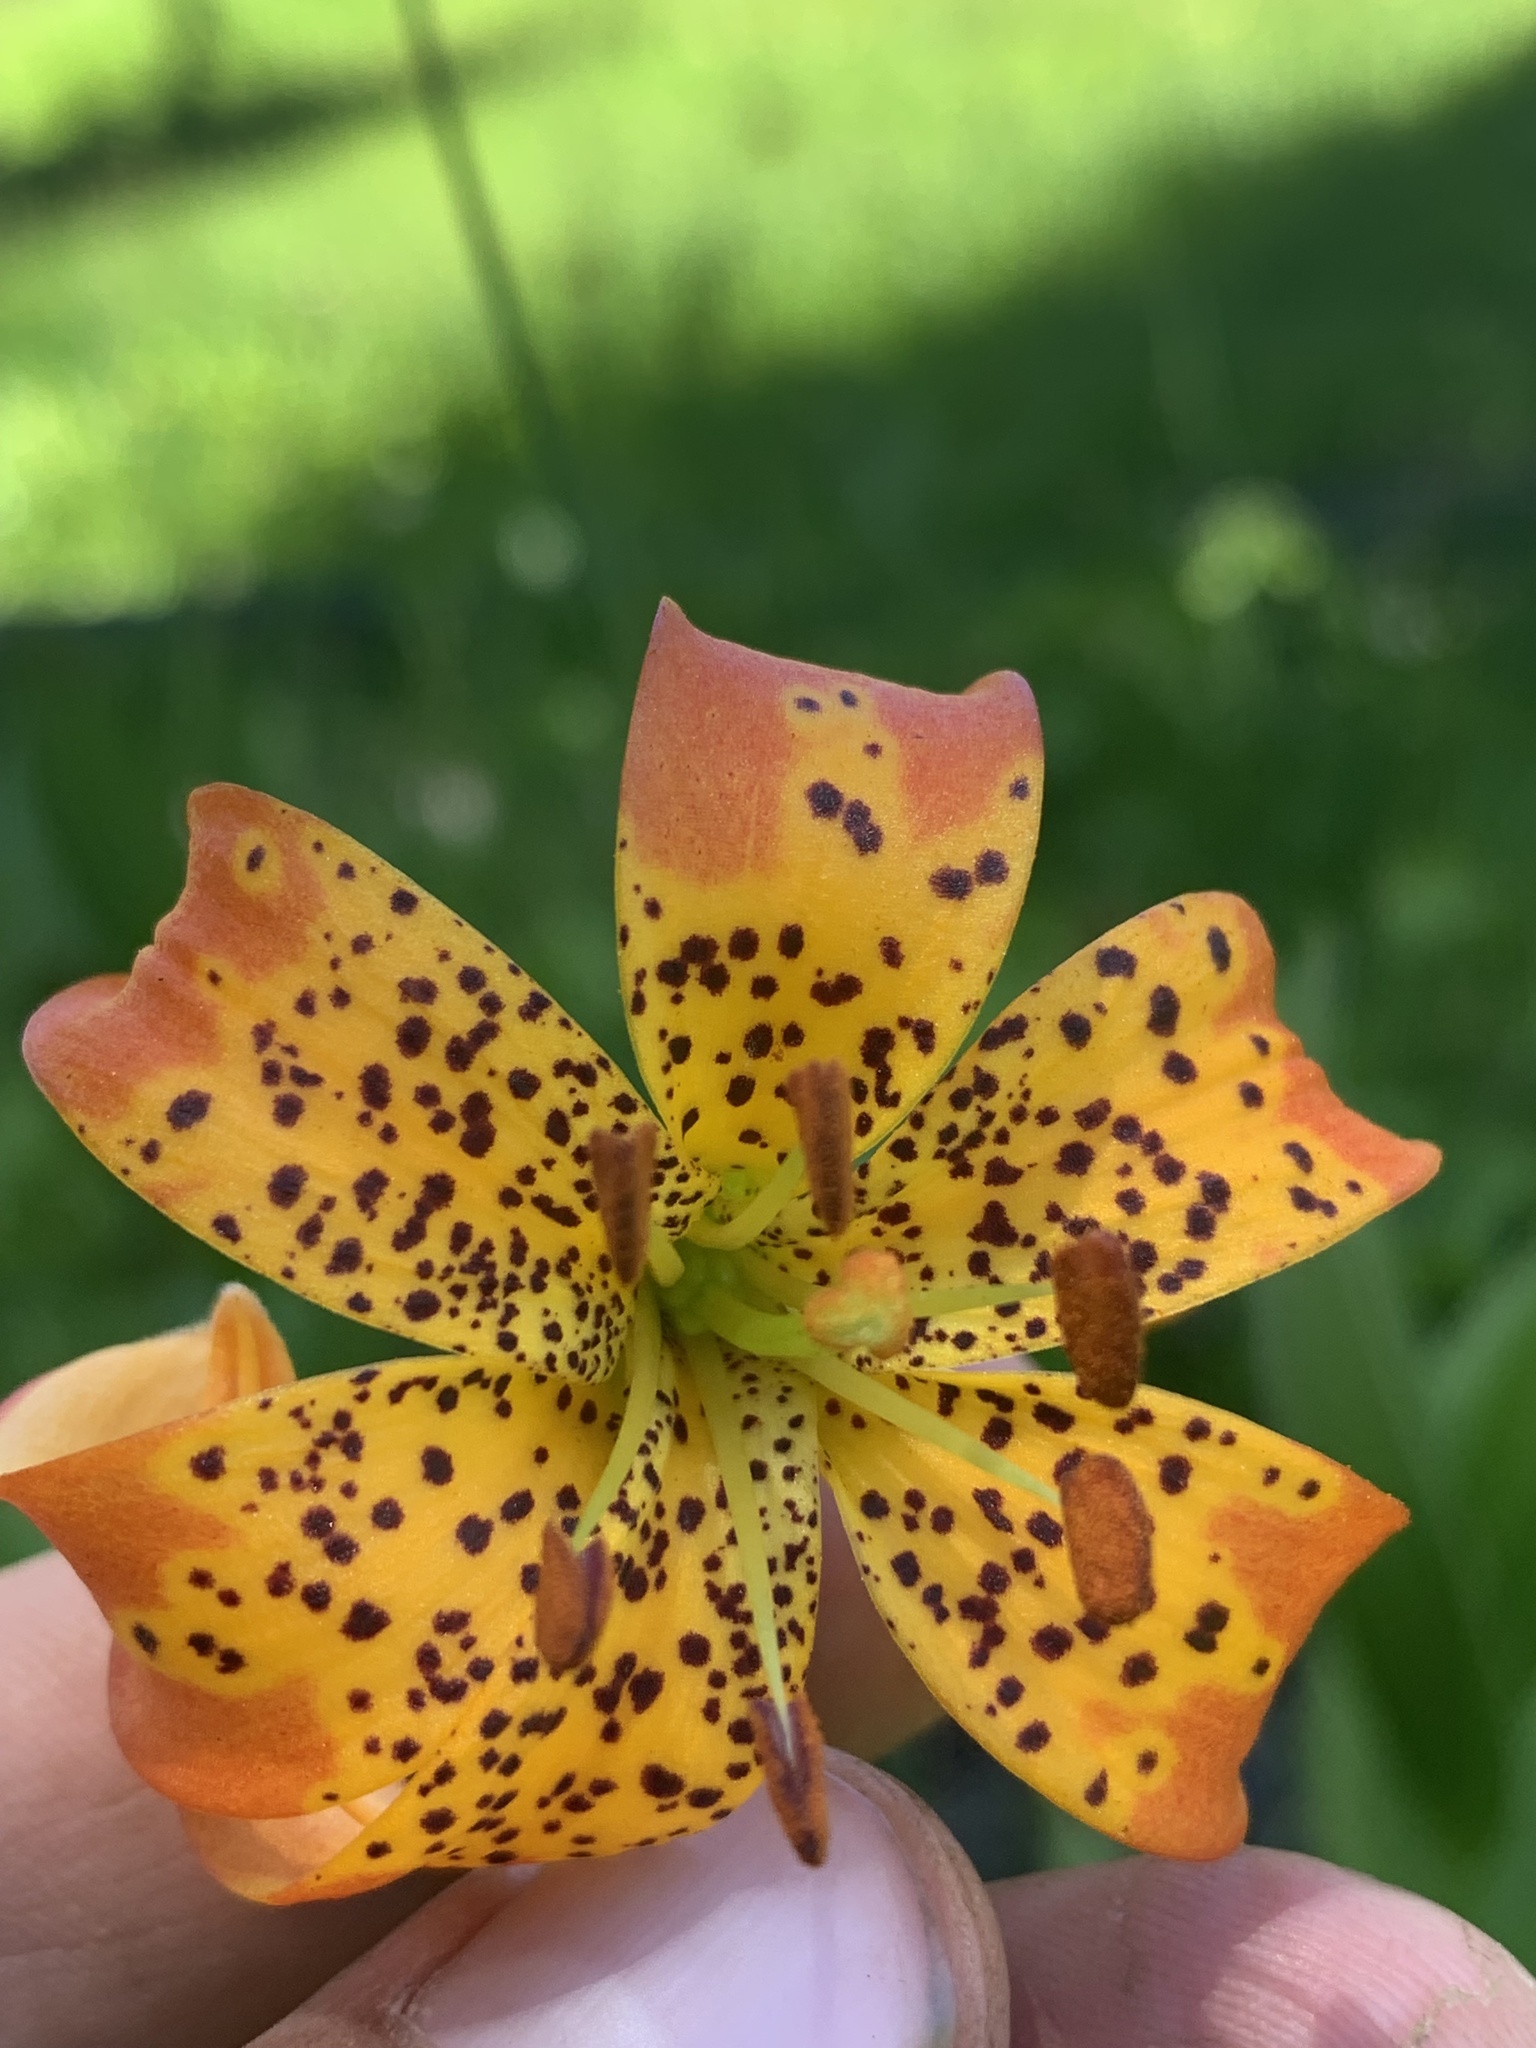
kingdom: Plantae
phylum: Tracheophyta
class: Liliopsida
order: Liliales
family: Liliaceae
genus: Lilium
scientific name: Lilium pardalinum
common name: Panther lily
